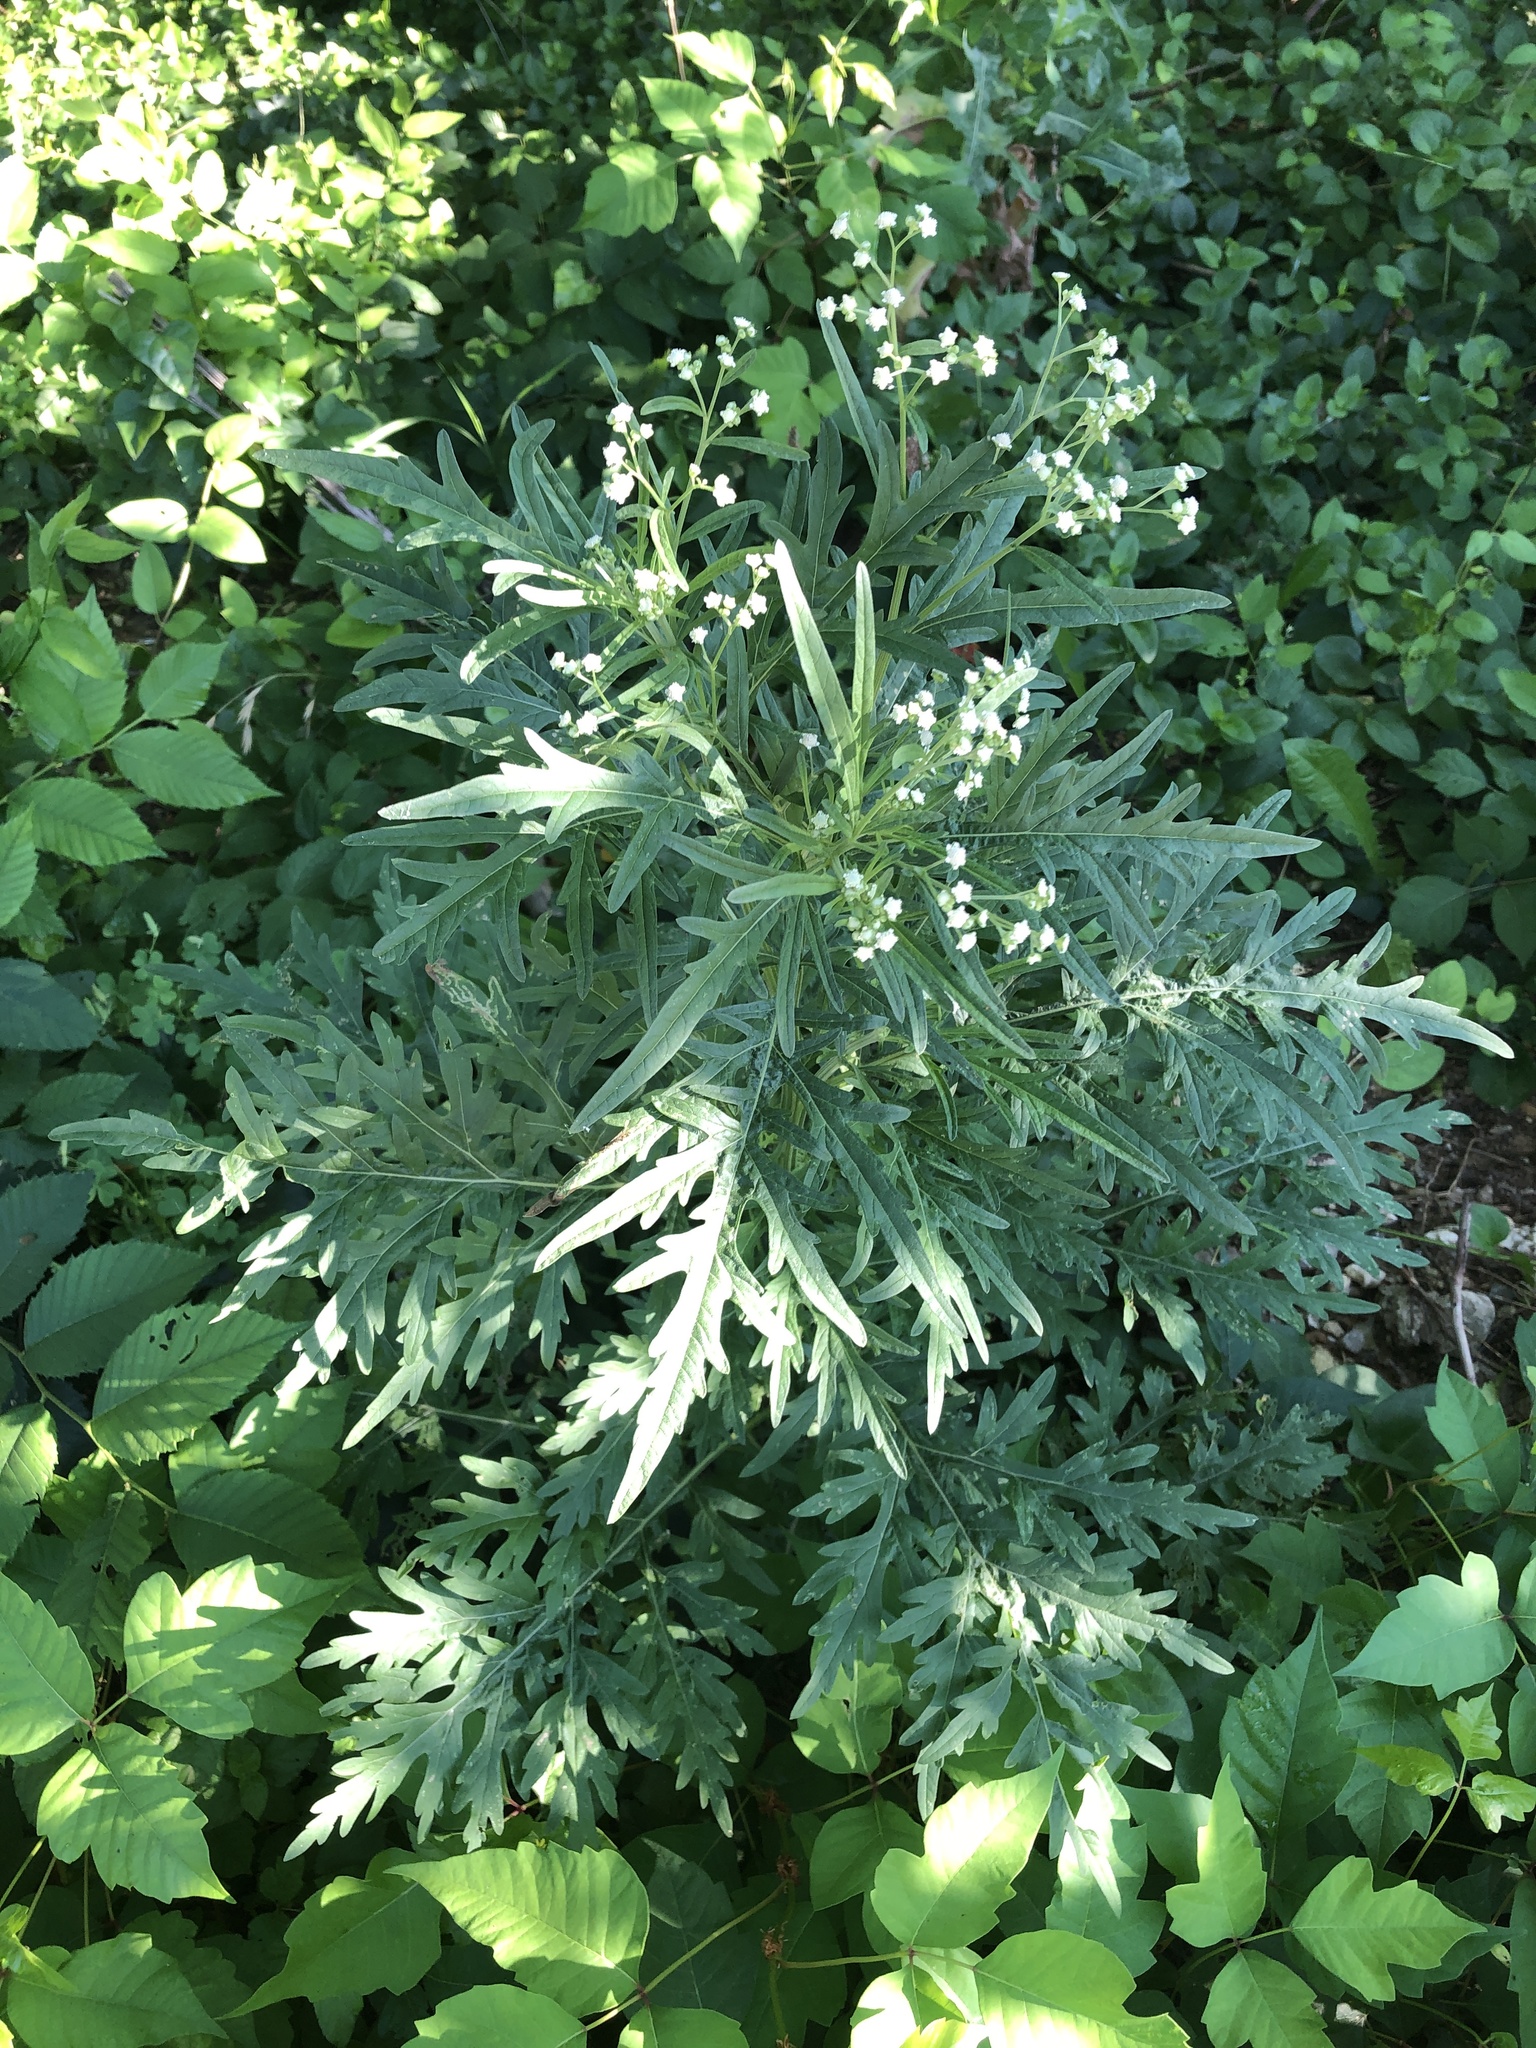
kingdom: Plantae
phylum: Tracheophyta
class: Magnoliopsida
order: Asterales
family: Asteraceae
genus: Parthenium
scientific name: Parthenium hysterophorus
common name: Santa maria feverfew
